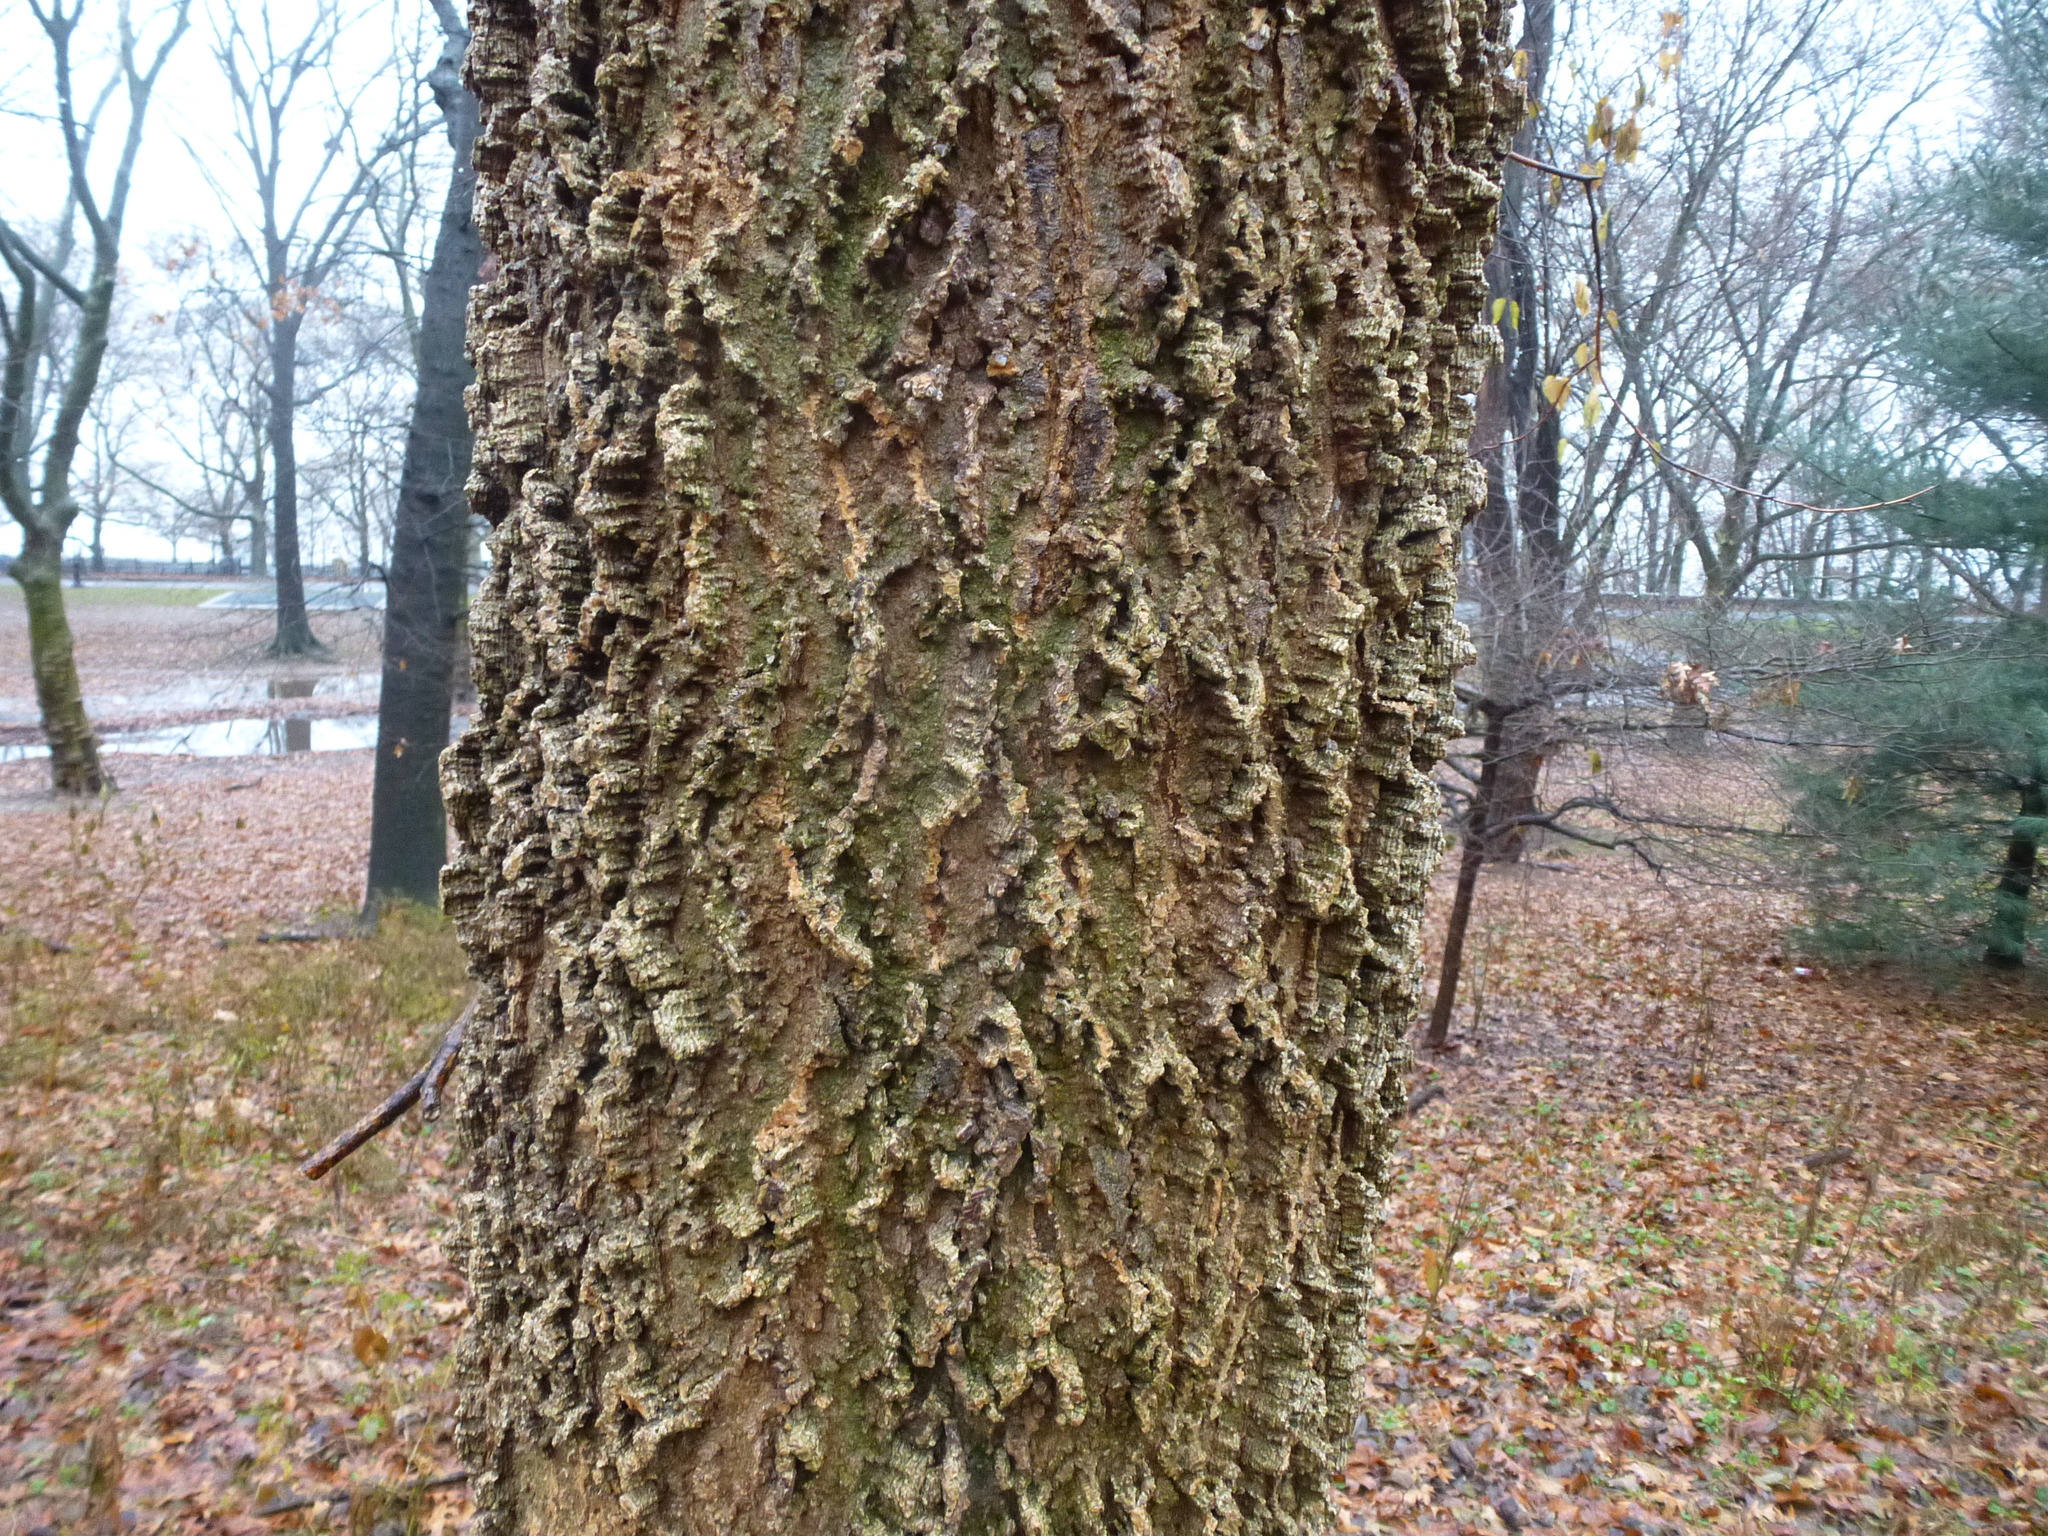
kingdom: Plantae
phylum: Tracheophyta
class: Magnoliopsida
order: Rosales
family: Cannabaceae
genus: Celtis
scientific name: Celtis occidentalis
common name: Common hackberry
